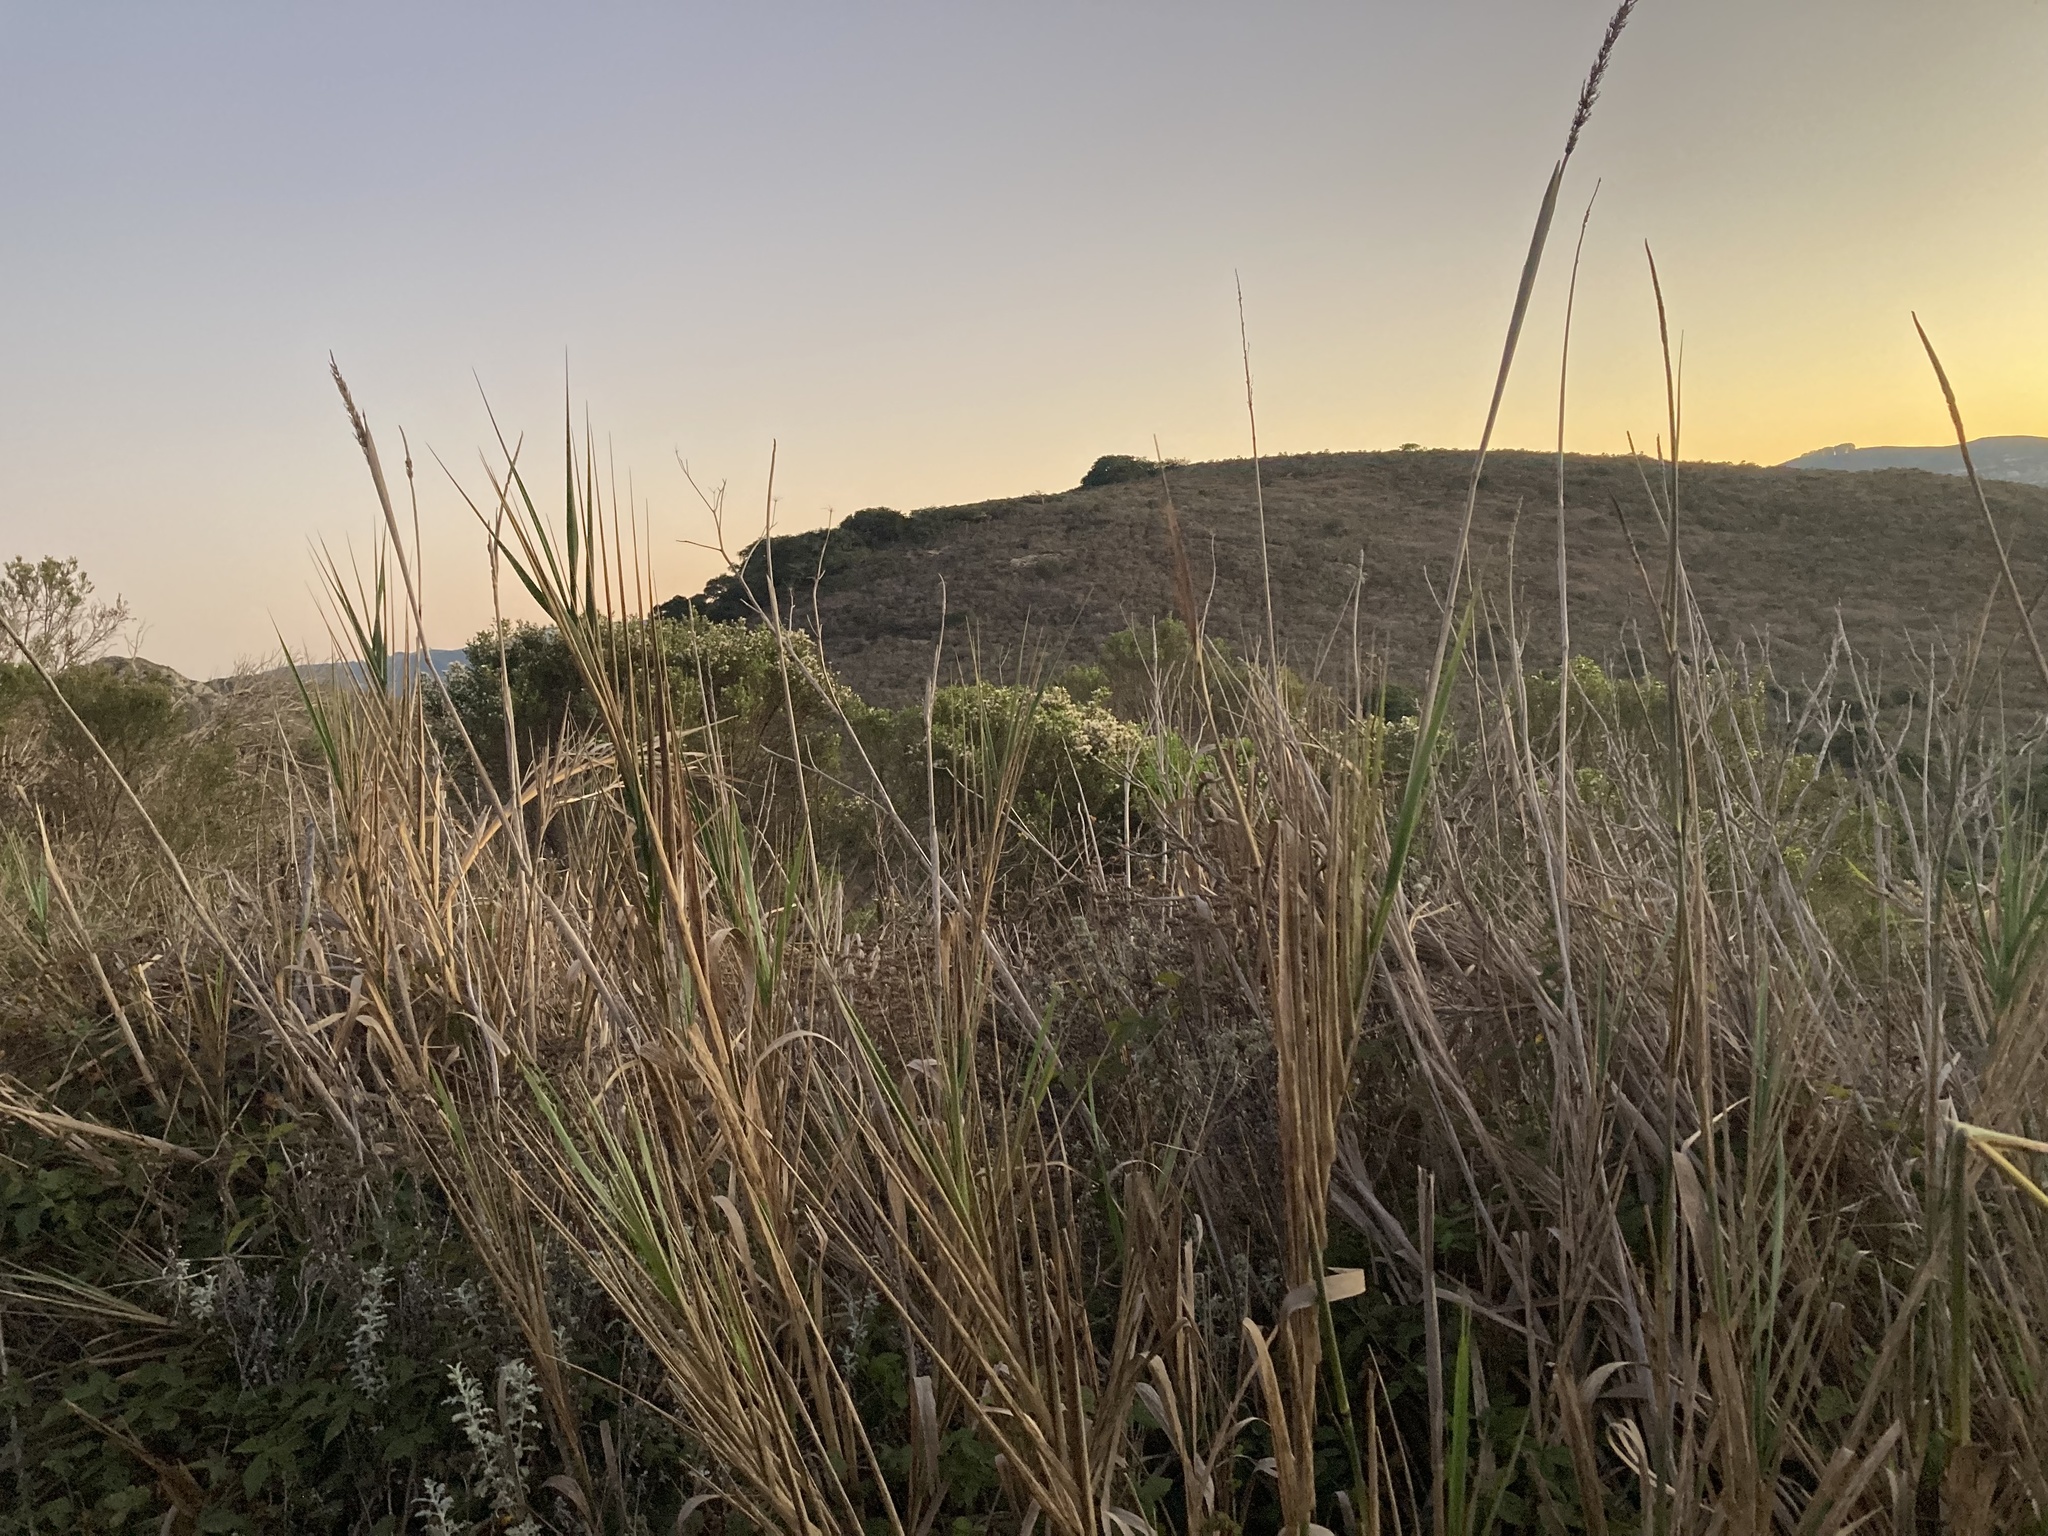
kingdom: Plantae
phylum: Tracheophyta
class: Liliopsida
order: Poales
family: Poaceae
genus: Leymus
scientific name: Leymus condensatus
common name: Giant wild rye
